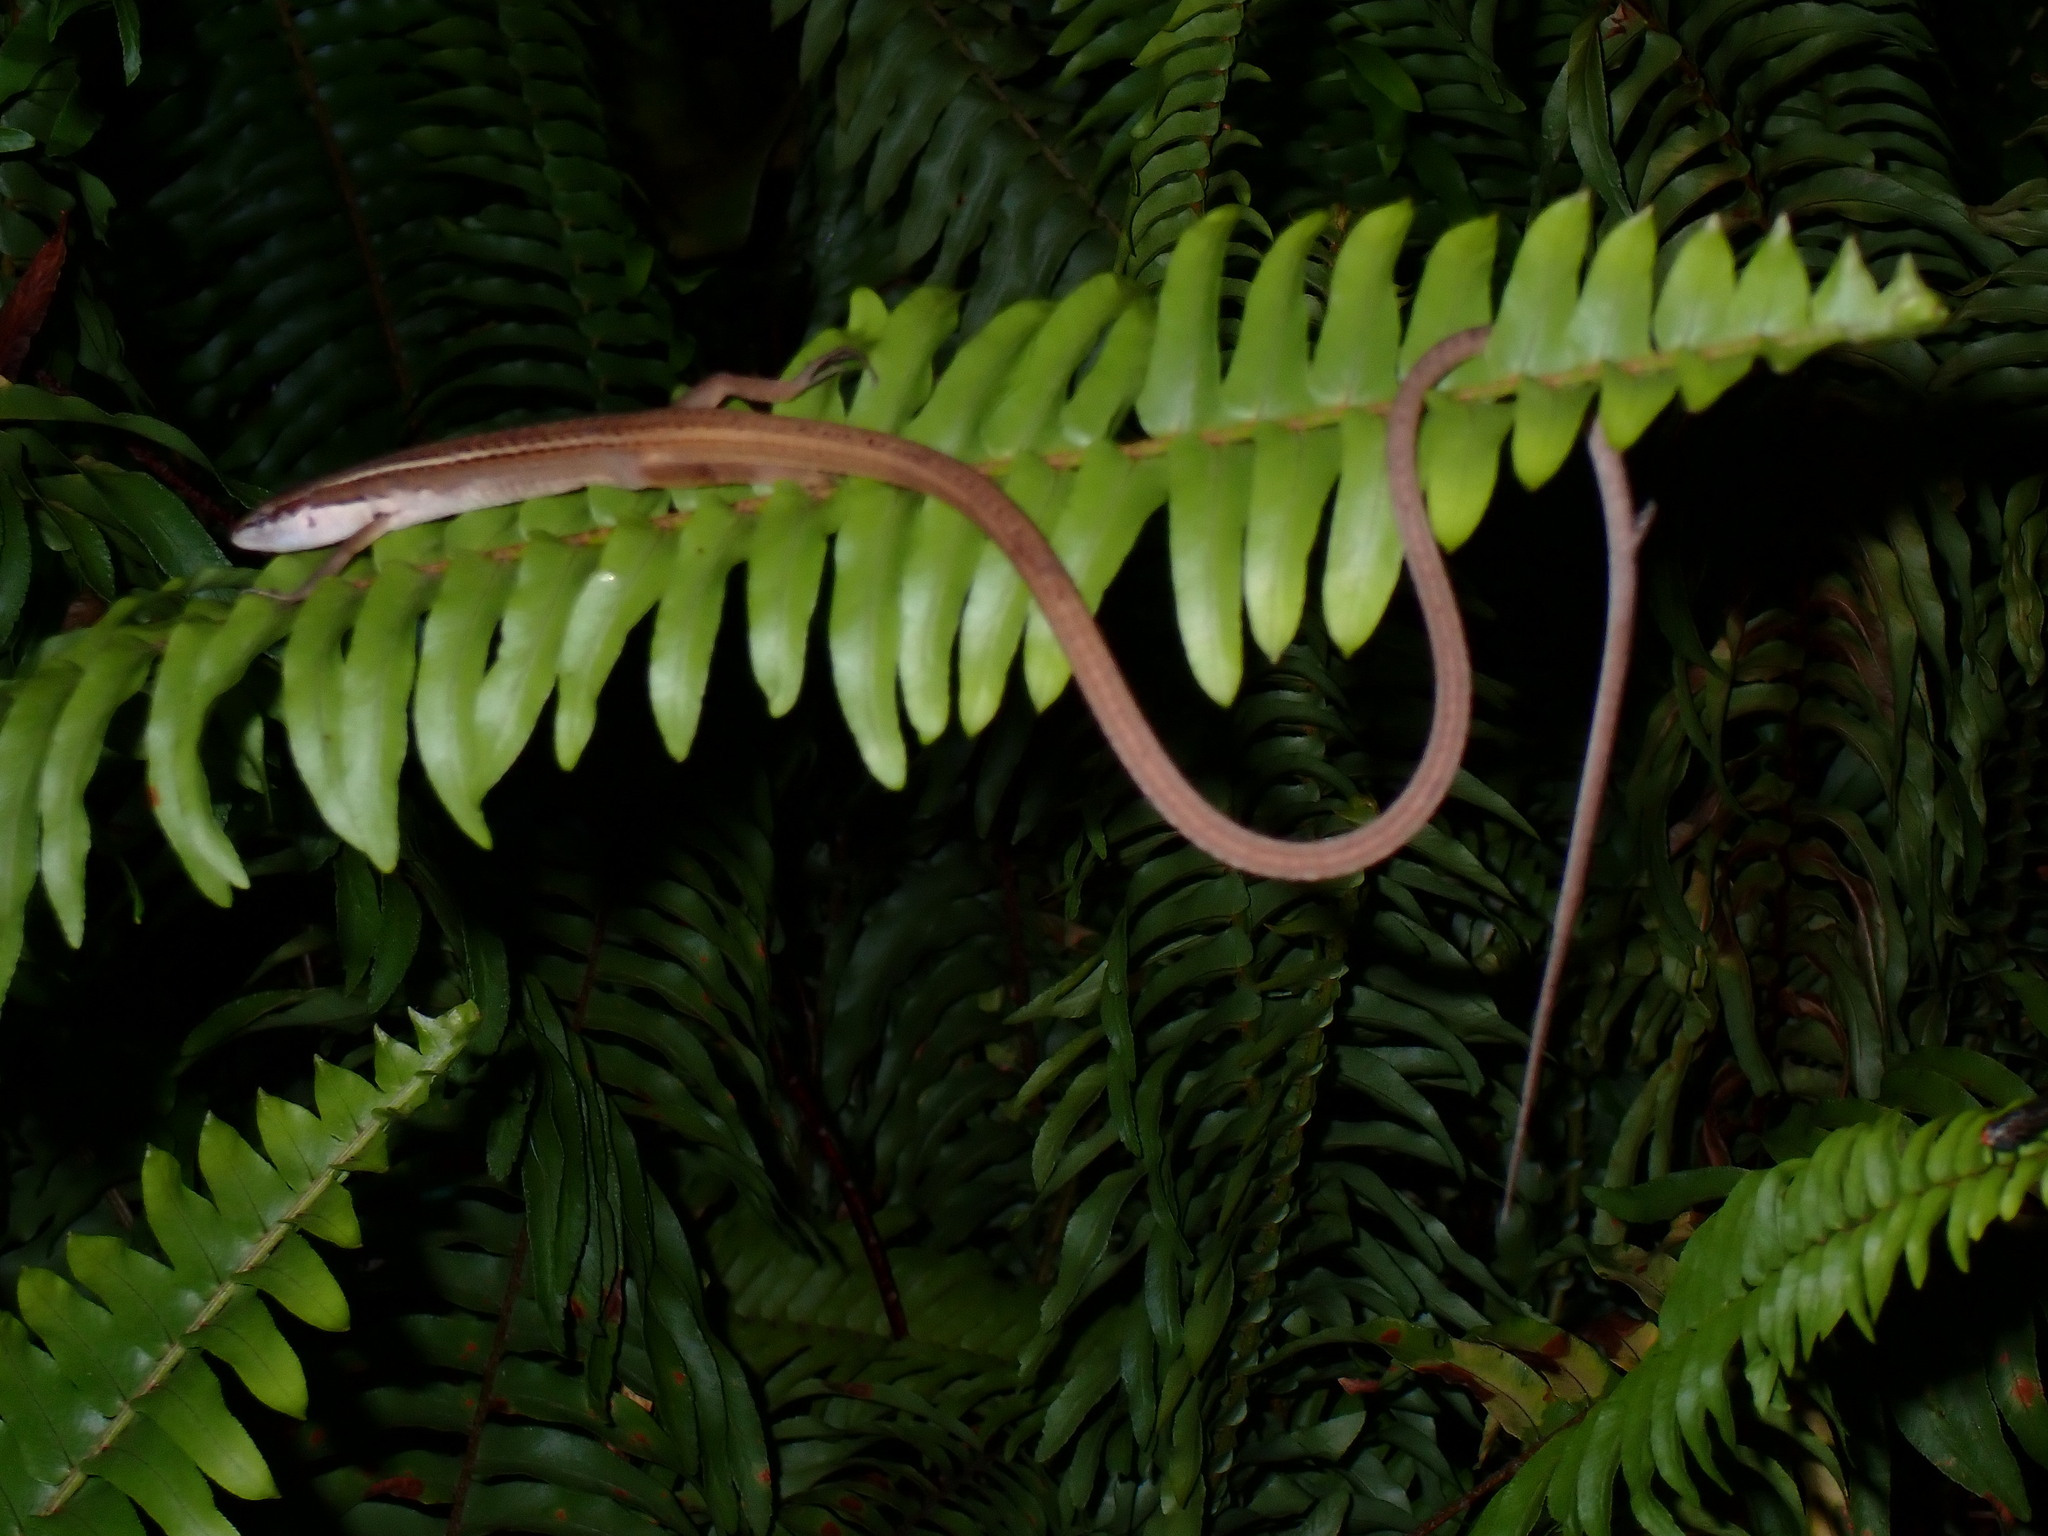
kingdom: Animalia
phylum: Chordata
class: Squamata
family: Lacertidae
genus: Takydromus
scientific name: Takydromus sexlineatus
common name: Asian grass lizard
